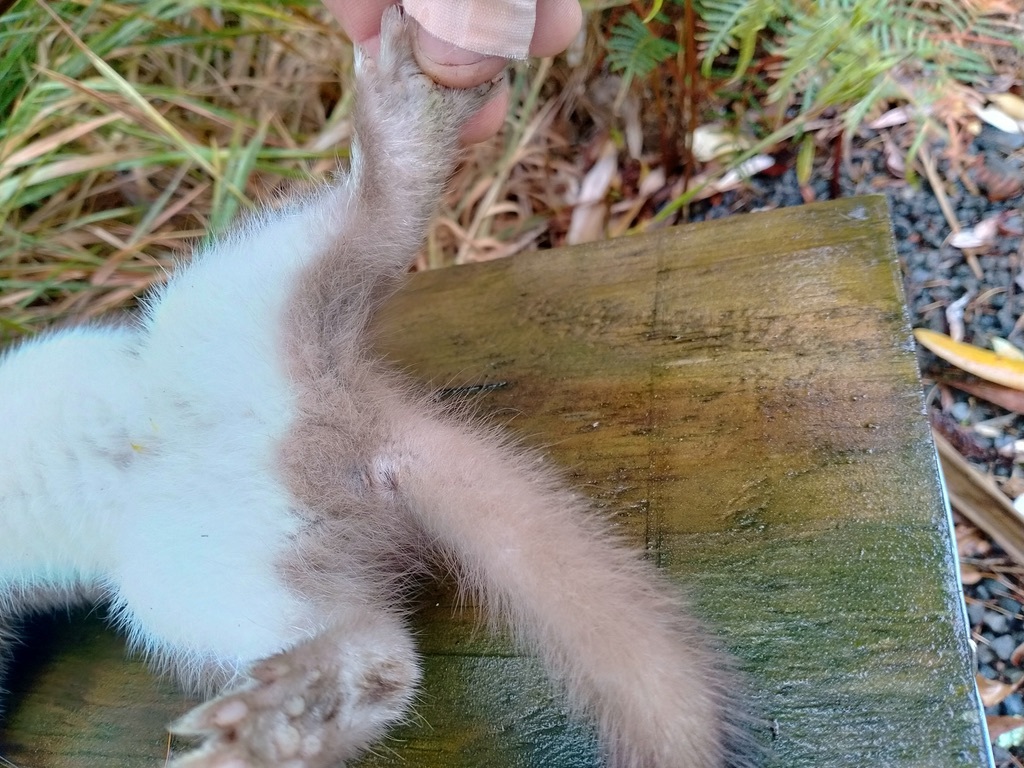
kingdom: Animalia
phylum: Chordata
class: Mammalia
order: Carnivora
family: Mustelidae
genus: Mustela
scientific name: Mustela erminea
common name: Stoat
